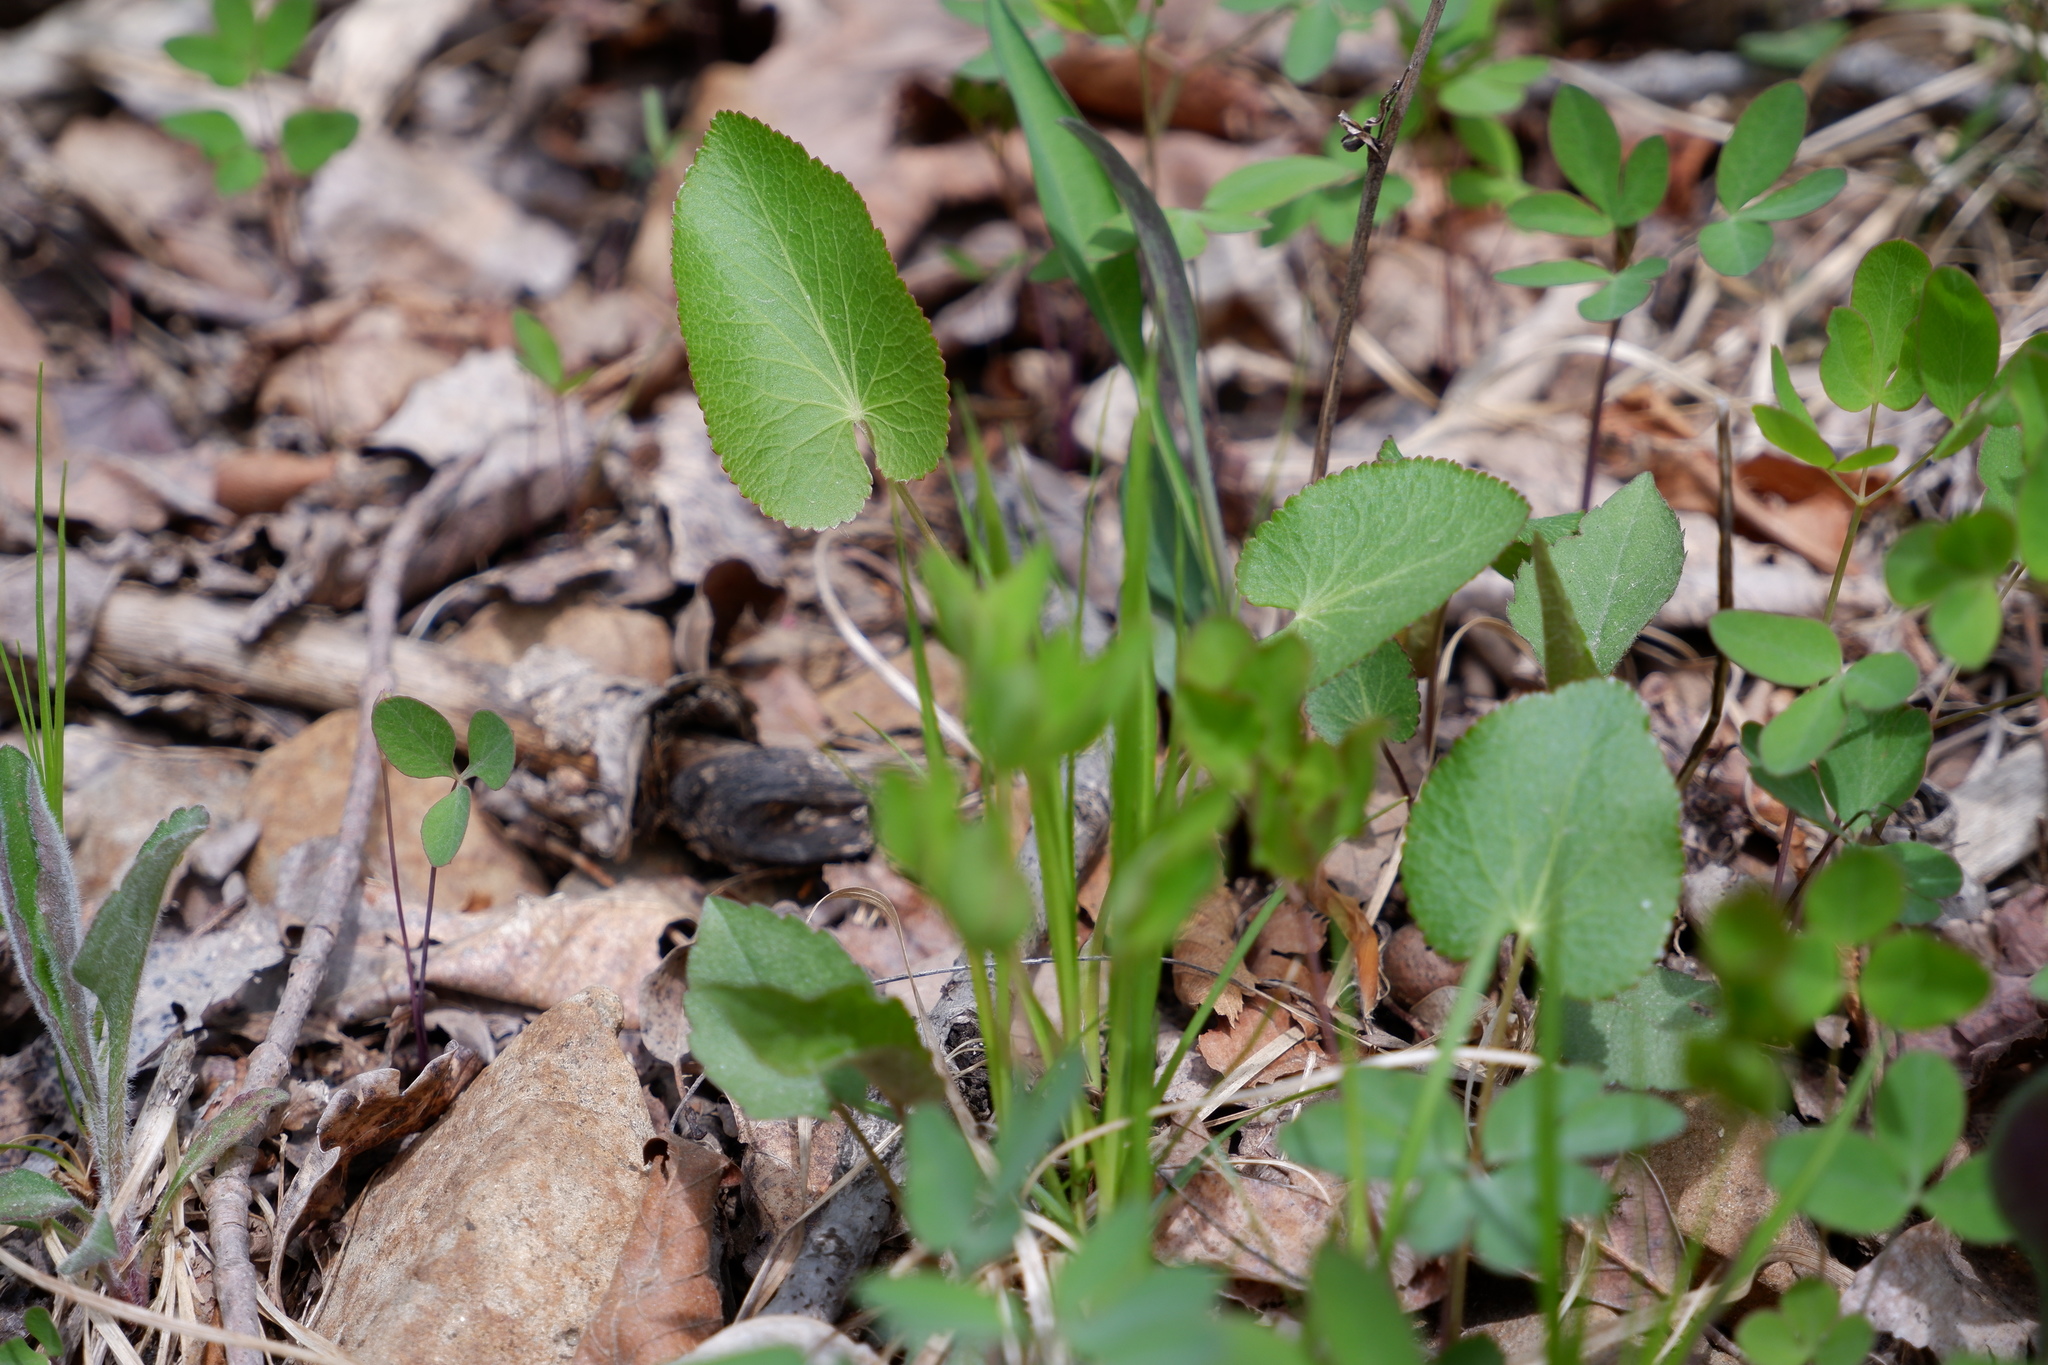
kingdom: Plantae
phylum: Tracheophyta
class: Magnoliopsida
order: Apiales
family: Apiaceae
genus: Zizia
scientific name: Zizia aptera
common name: Heart-leaved alexanders
